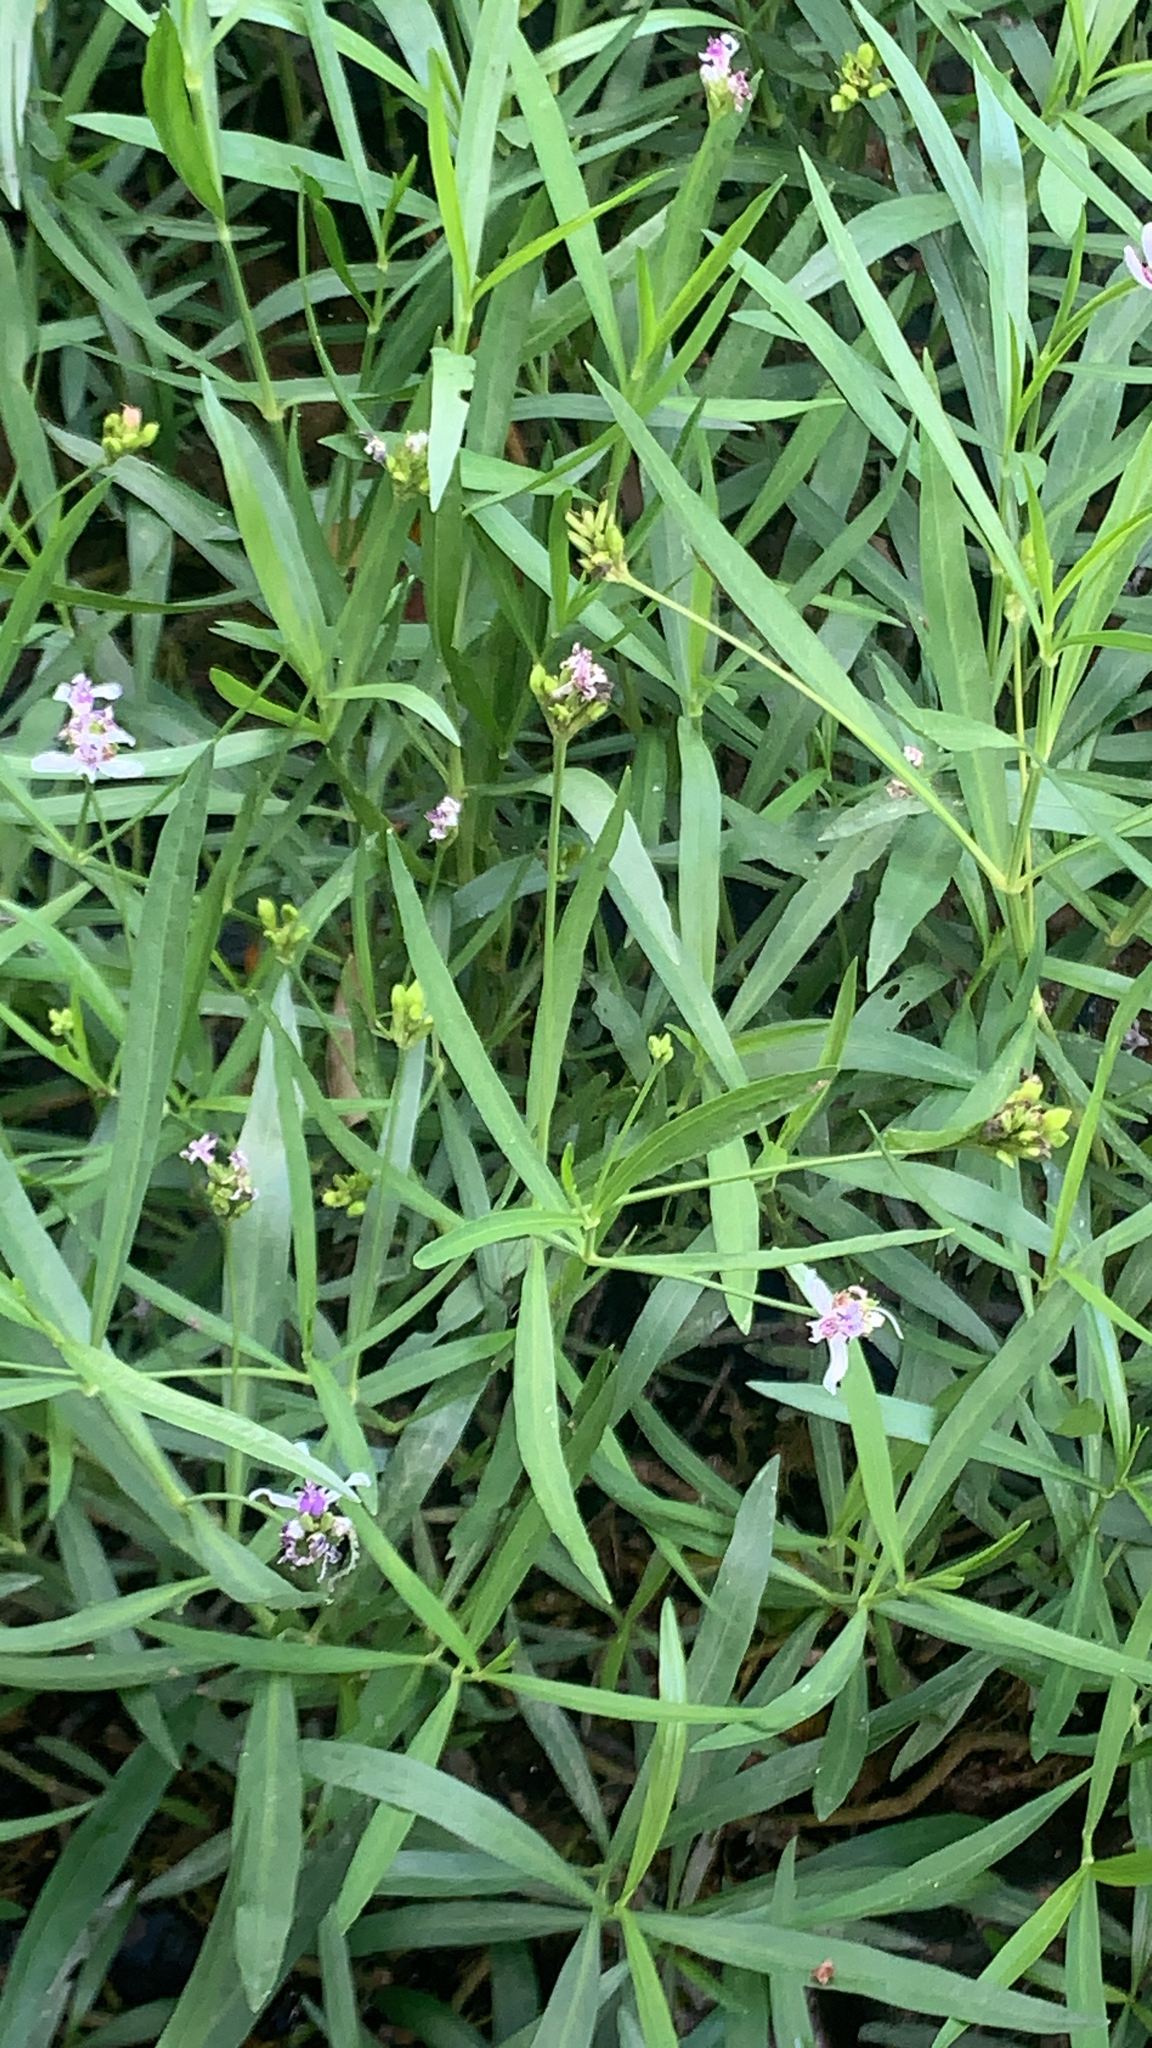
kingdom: Plantae
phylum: Tracheophyta
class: Magnoliopsida
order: Lamiales
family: Acanthaceae
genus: Dianthera
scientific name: Dianthera americana
